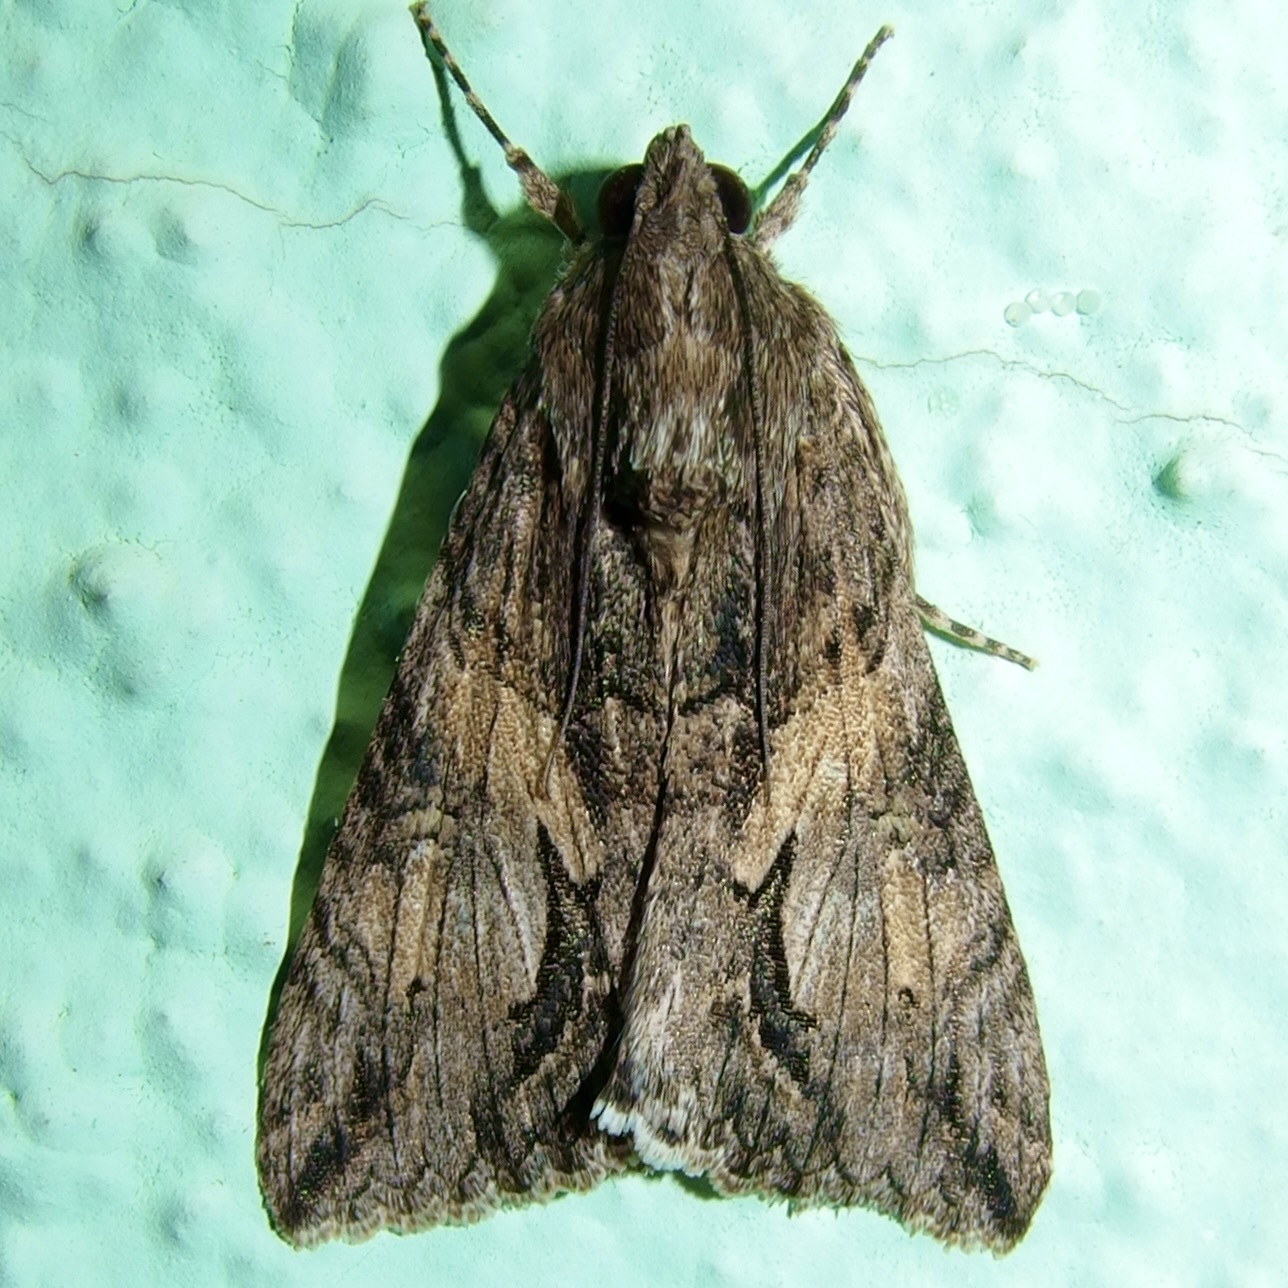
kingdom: Animalia
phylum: Arthropoda
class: Insecta
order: Lepidoptera
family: Erebidae
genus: Melipotis
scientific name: Melipotis jucunda
